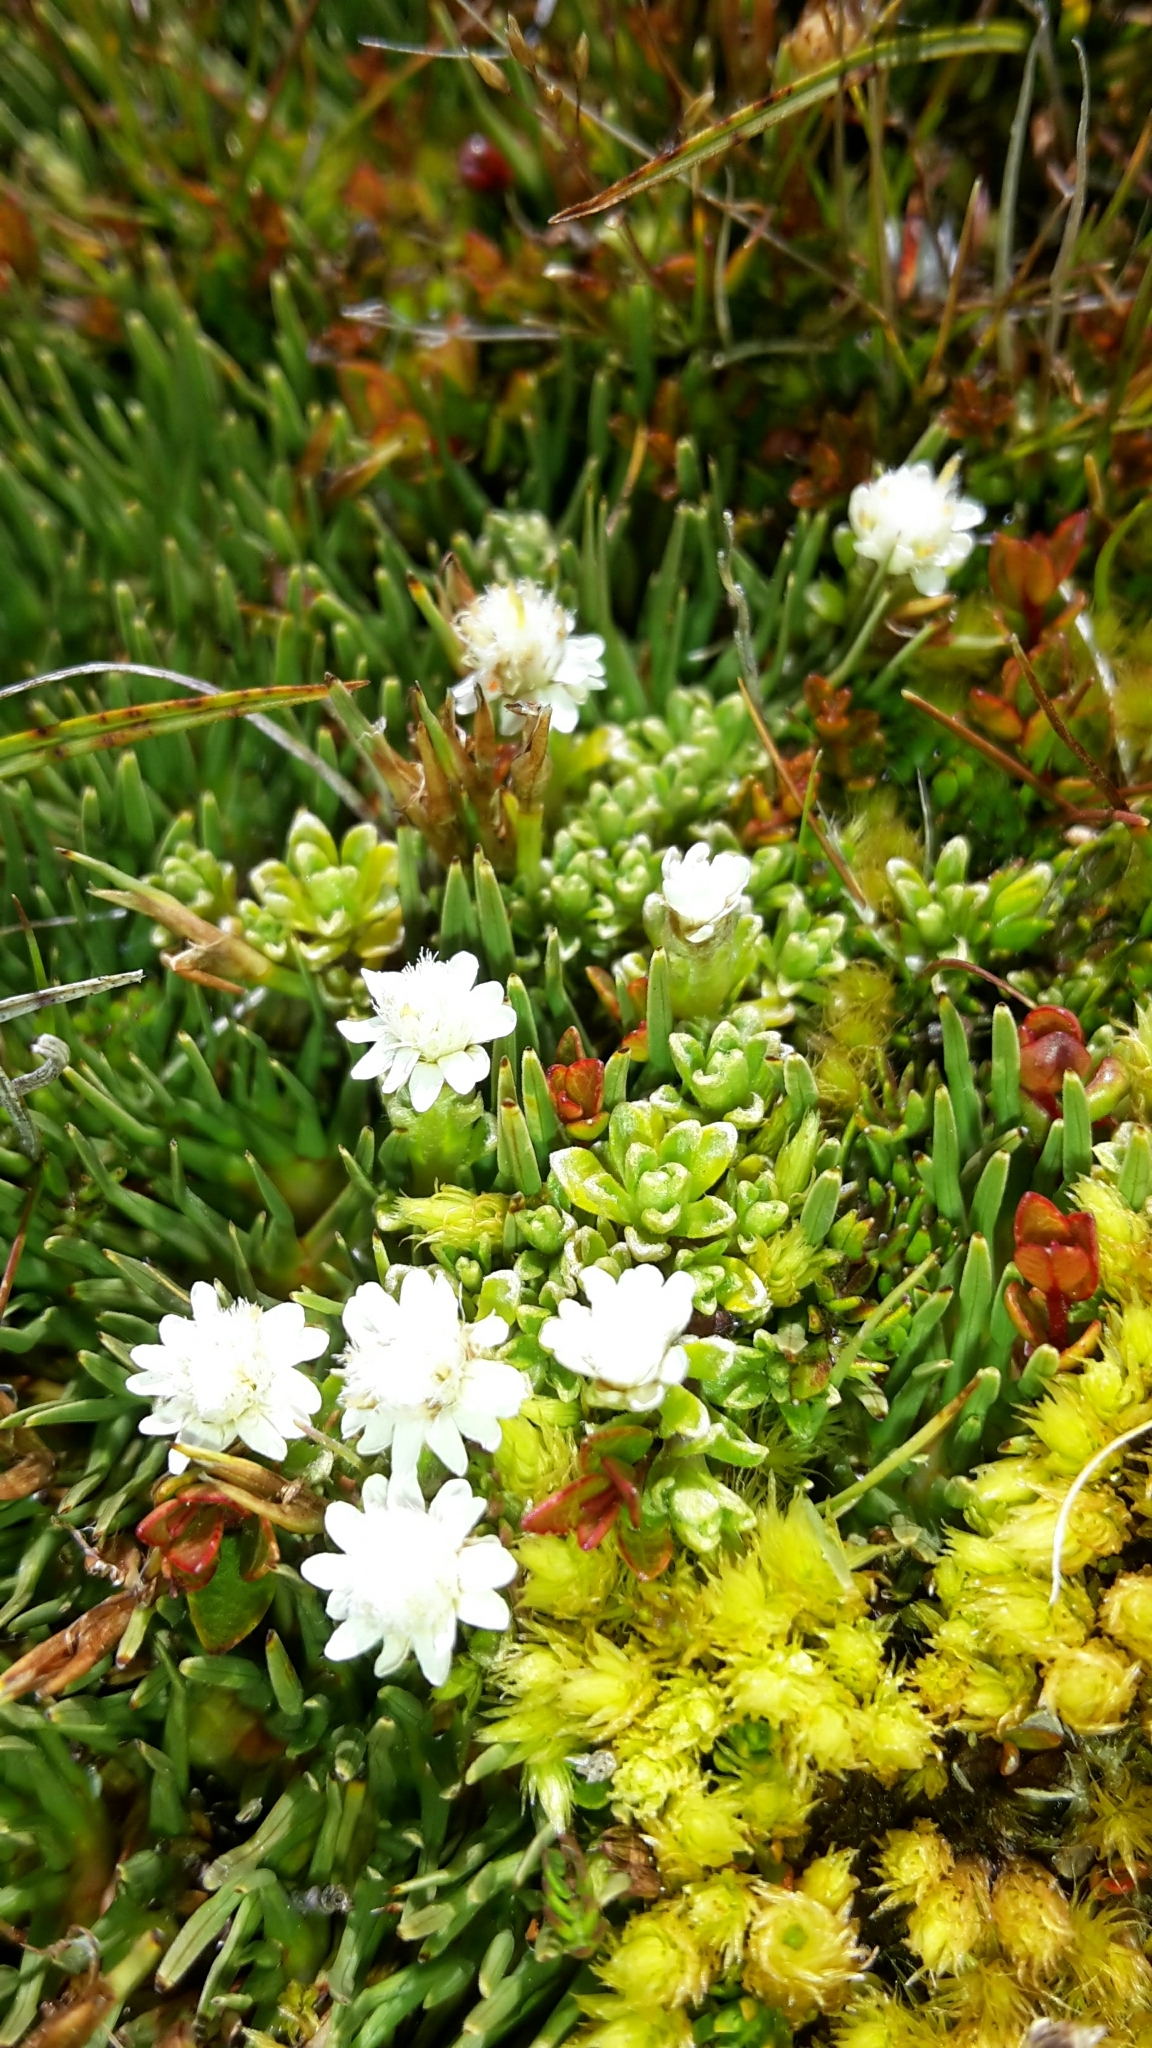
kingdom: Plantae
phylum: Tracheophyta
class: Magnoliopsida
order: Asterales
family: Asteraceae
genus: Raoulia
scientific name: Raoulia subsericea
